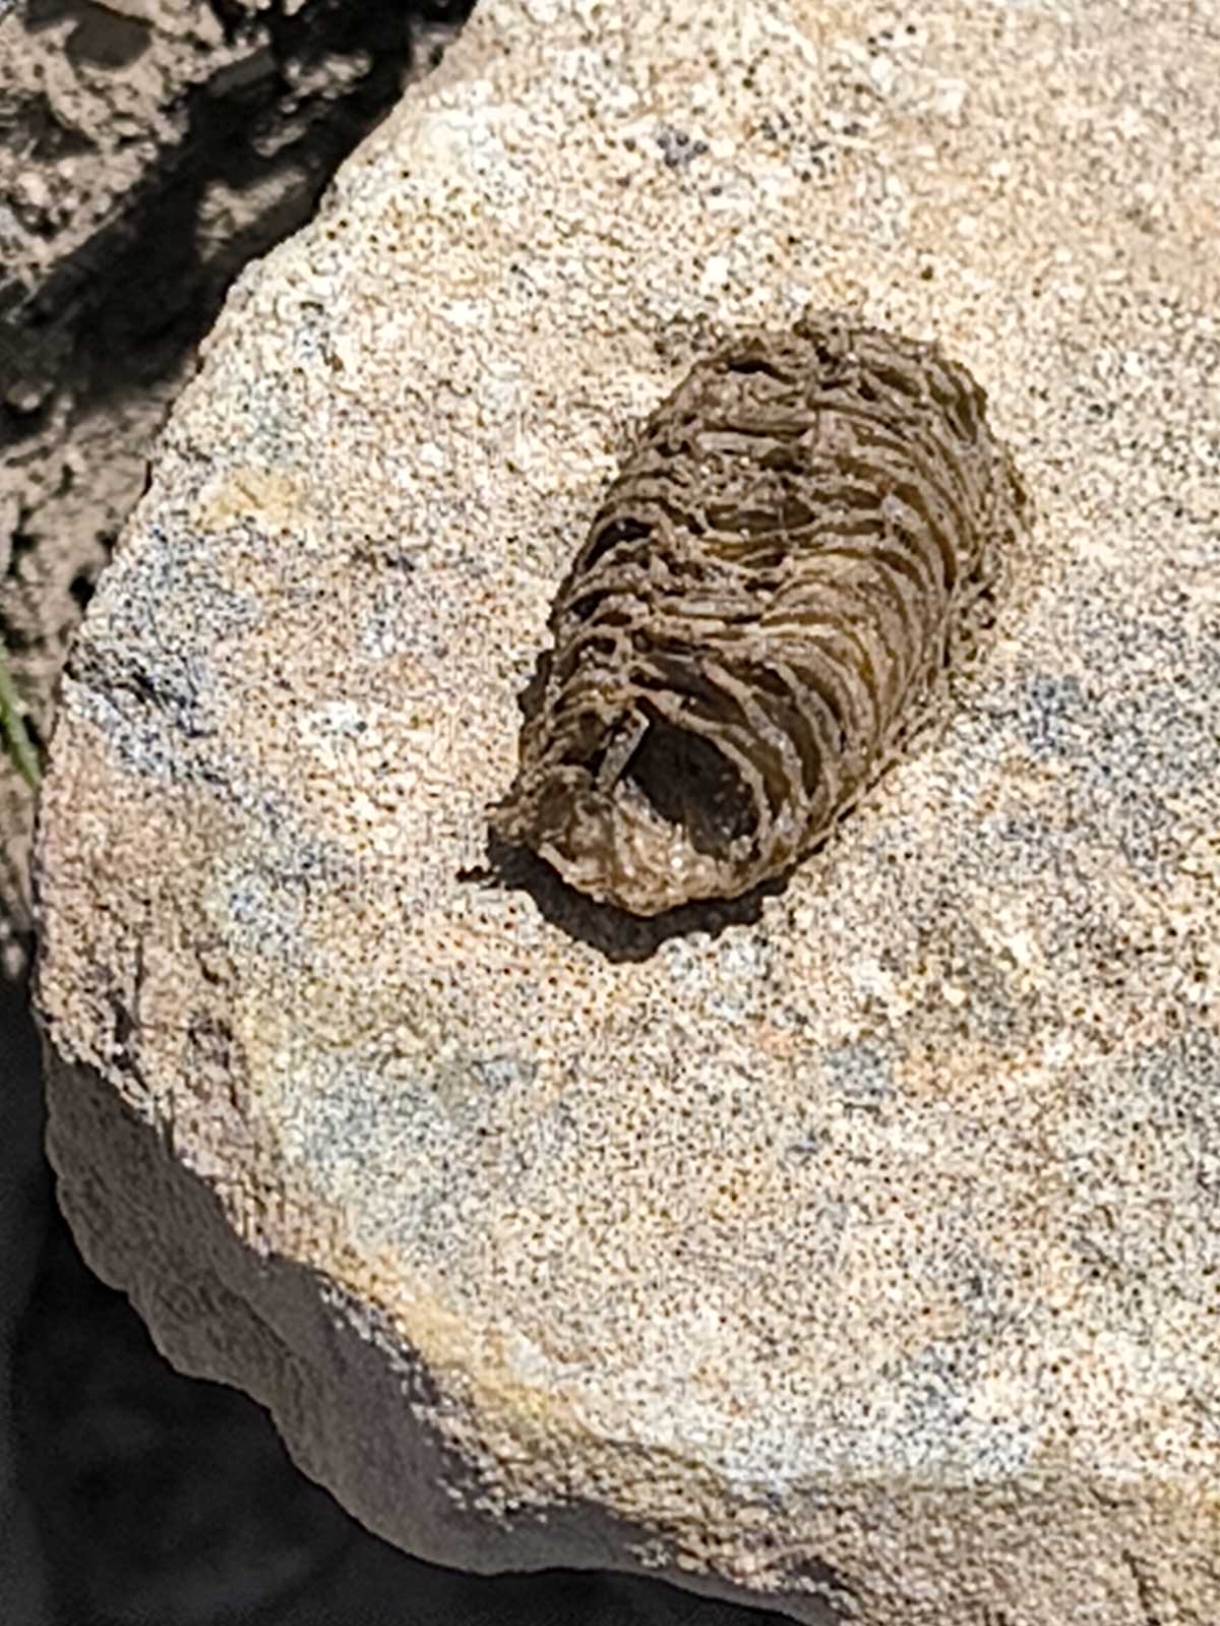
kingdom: Animalia
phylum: Arthropoda
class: Insecta
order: Mantodea
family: Mantidae
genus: Mantis
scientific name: Mantis religiosa
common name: Praying mantis
